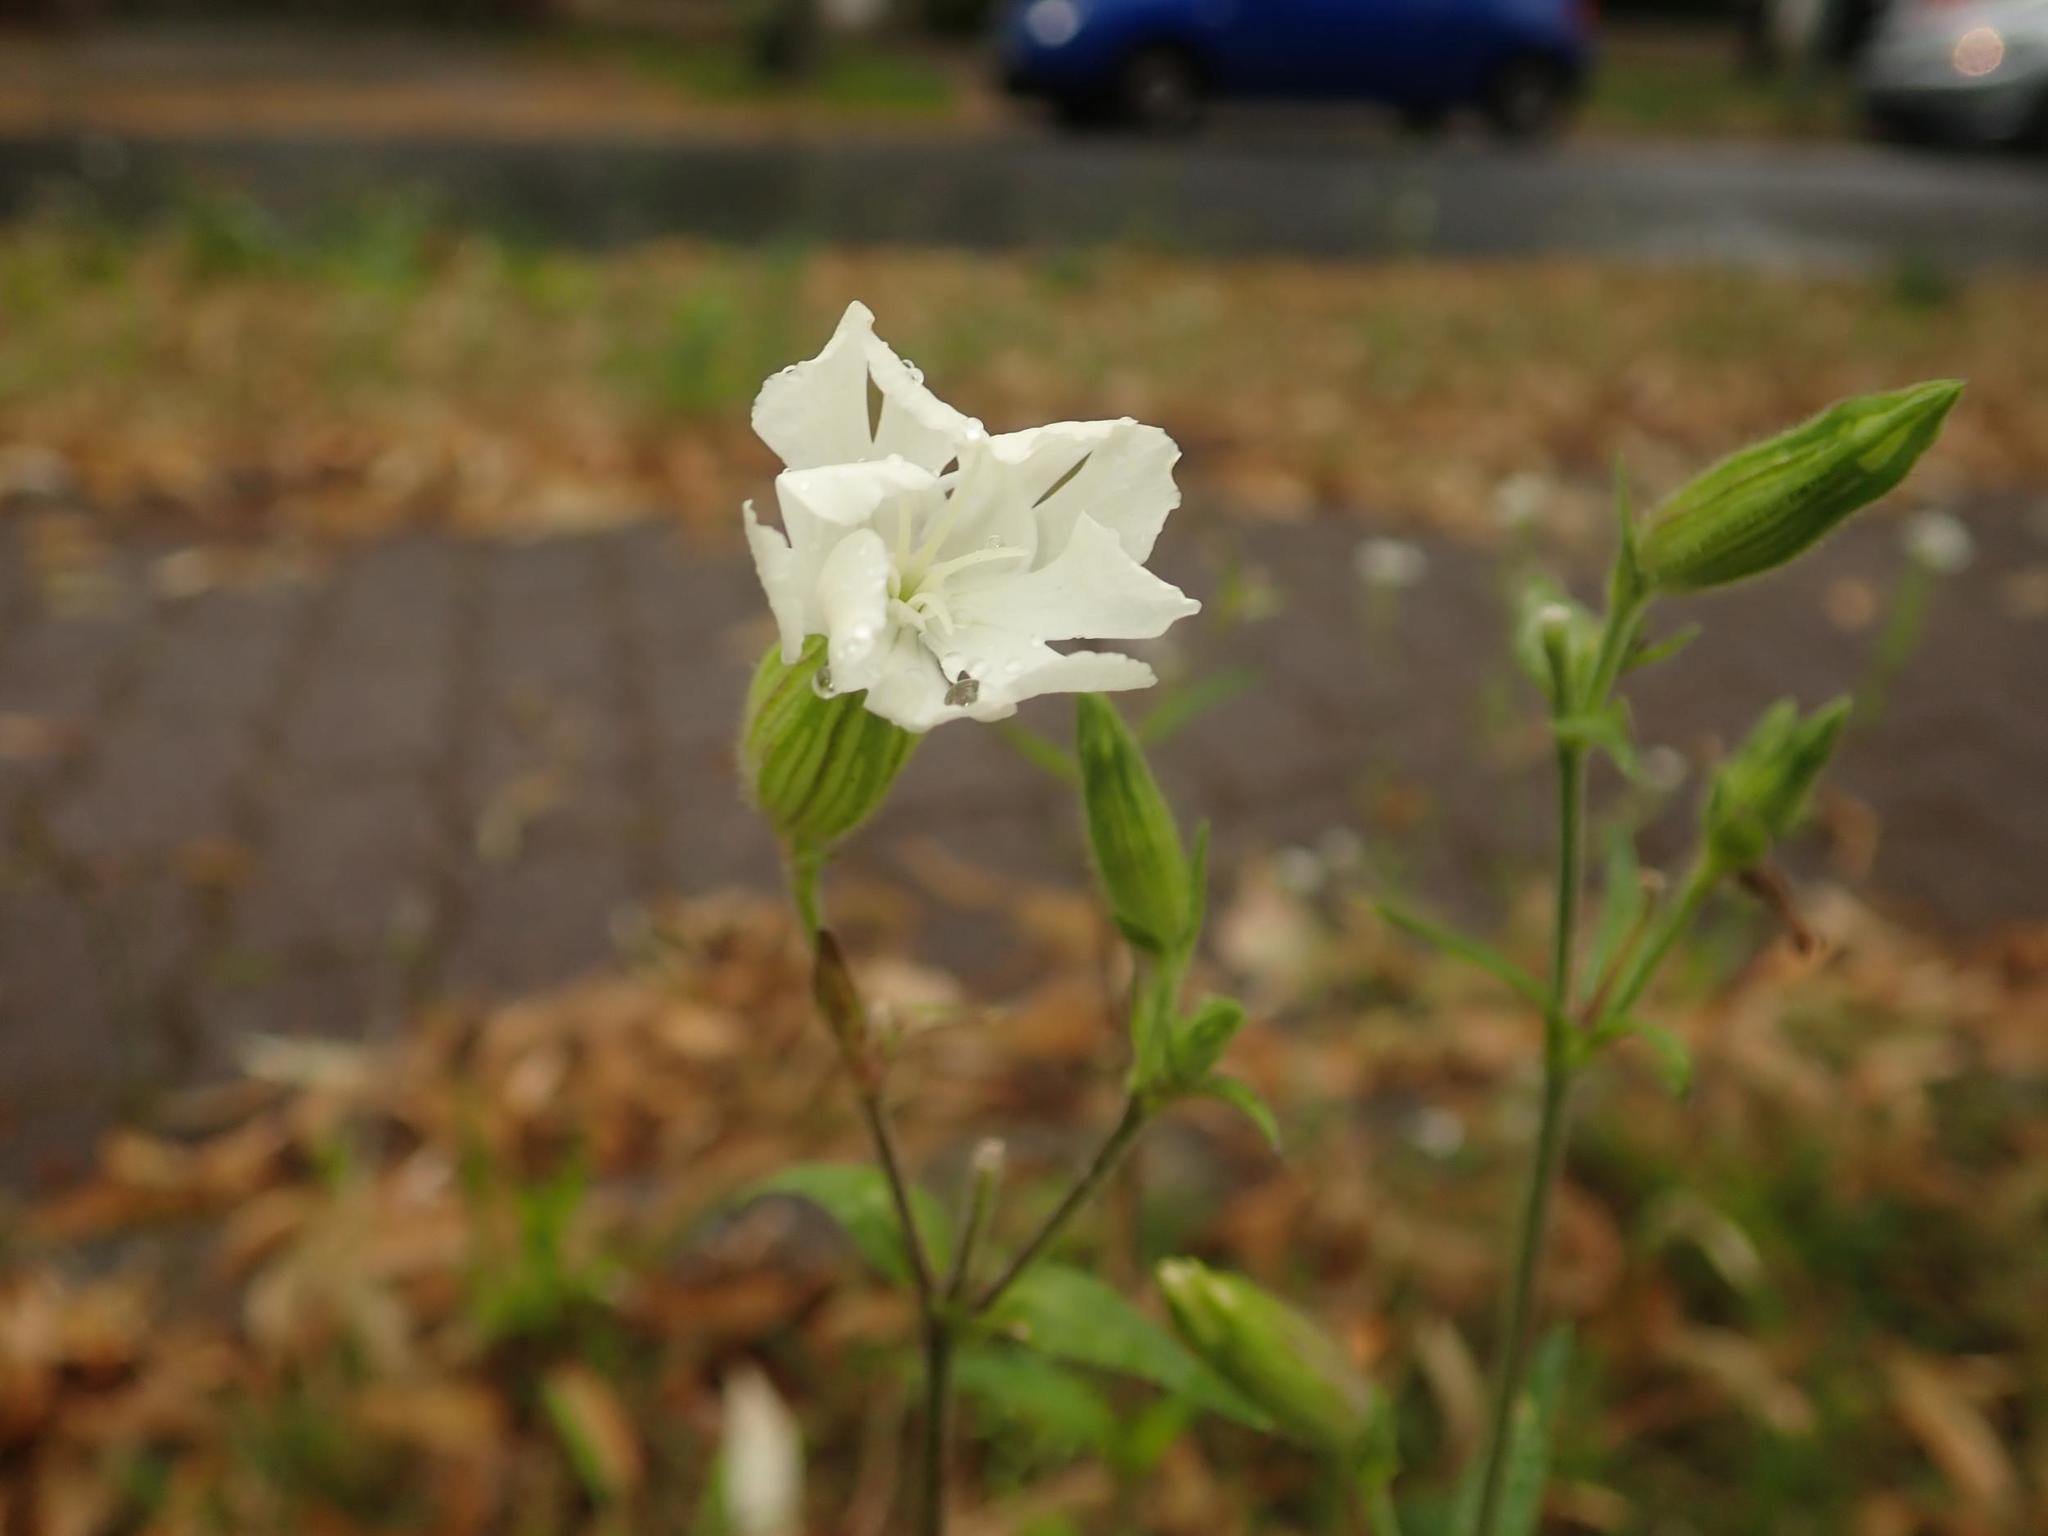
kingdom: Plantae
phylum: Tracheophyta
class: Magnoliopsida
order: Caryophyllales
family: Caryophyllaceae
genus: Silene
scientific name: Silene latifolia
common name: White campion
